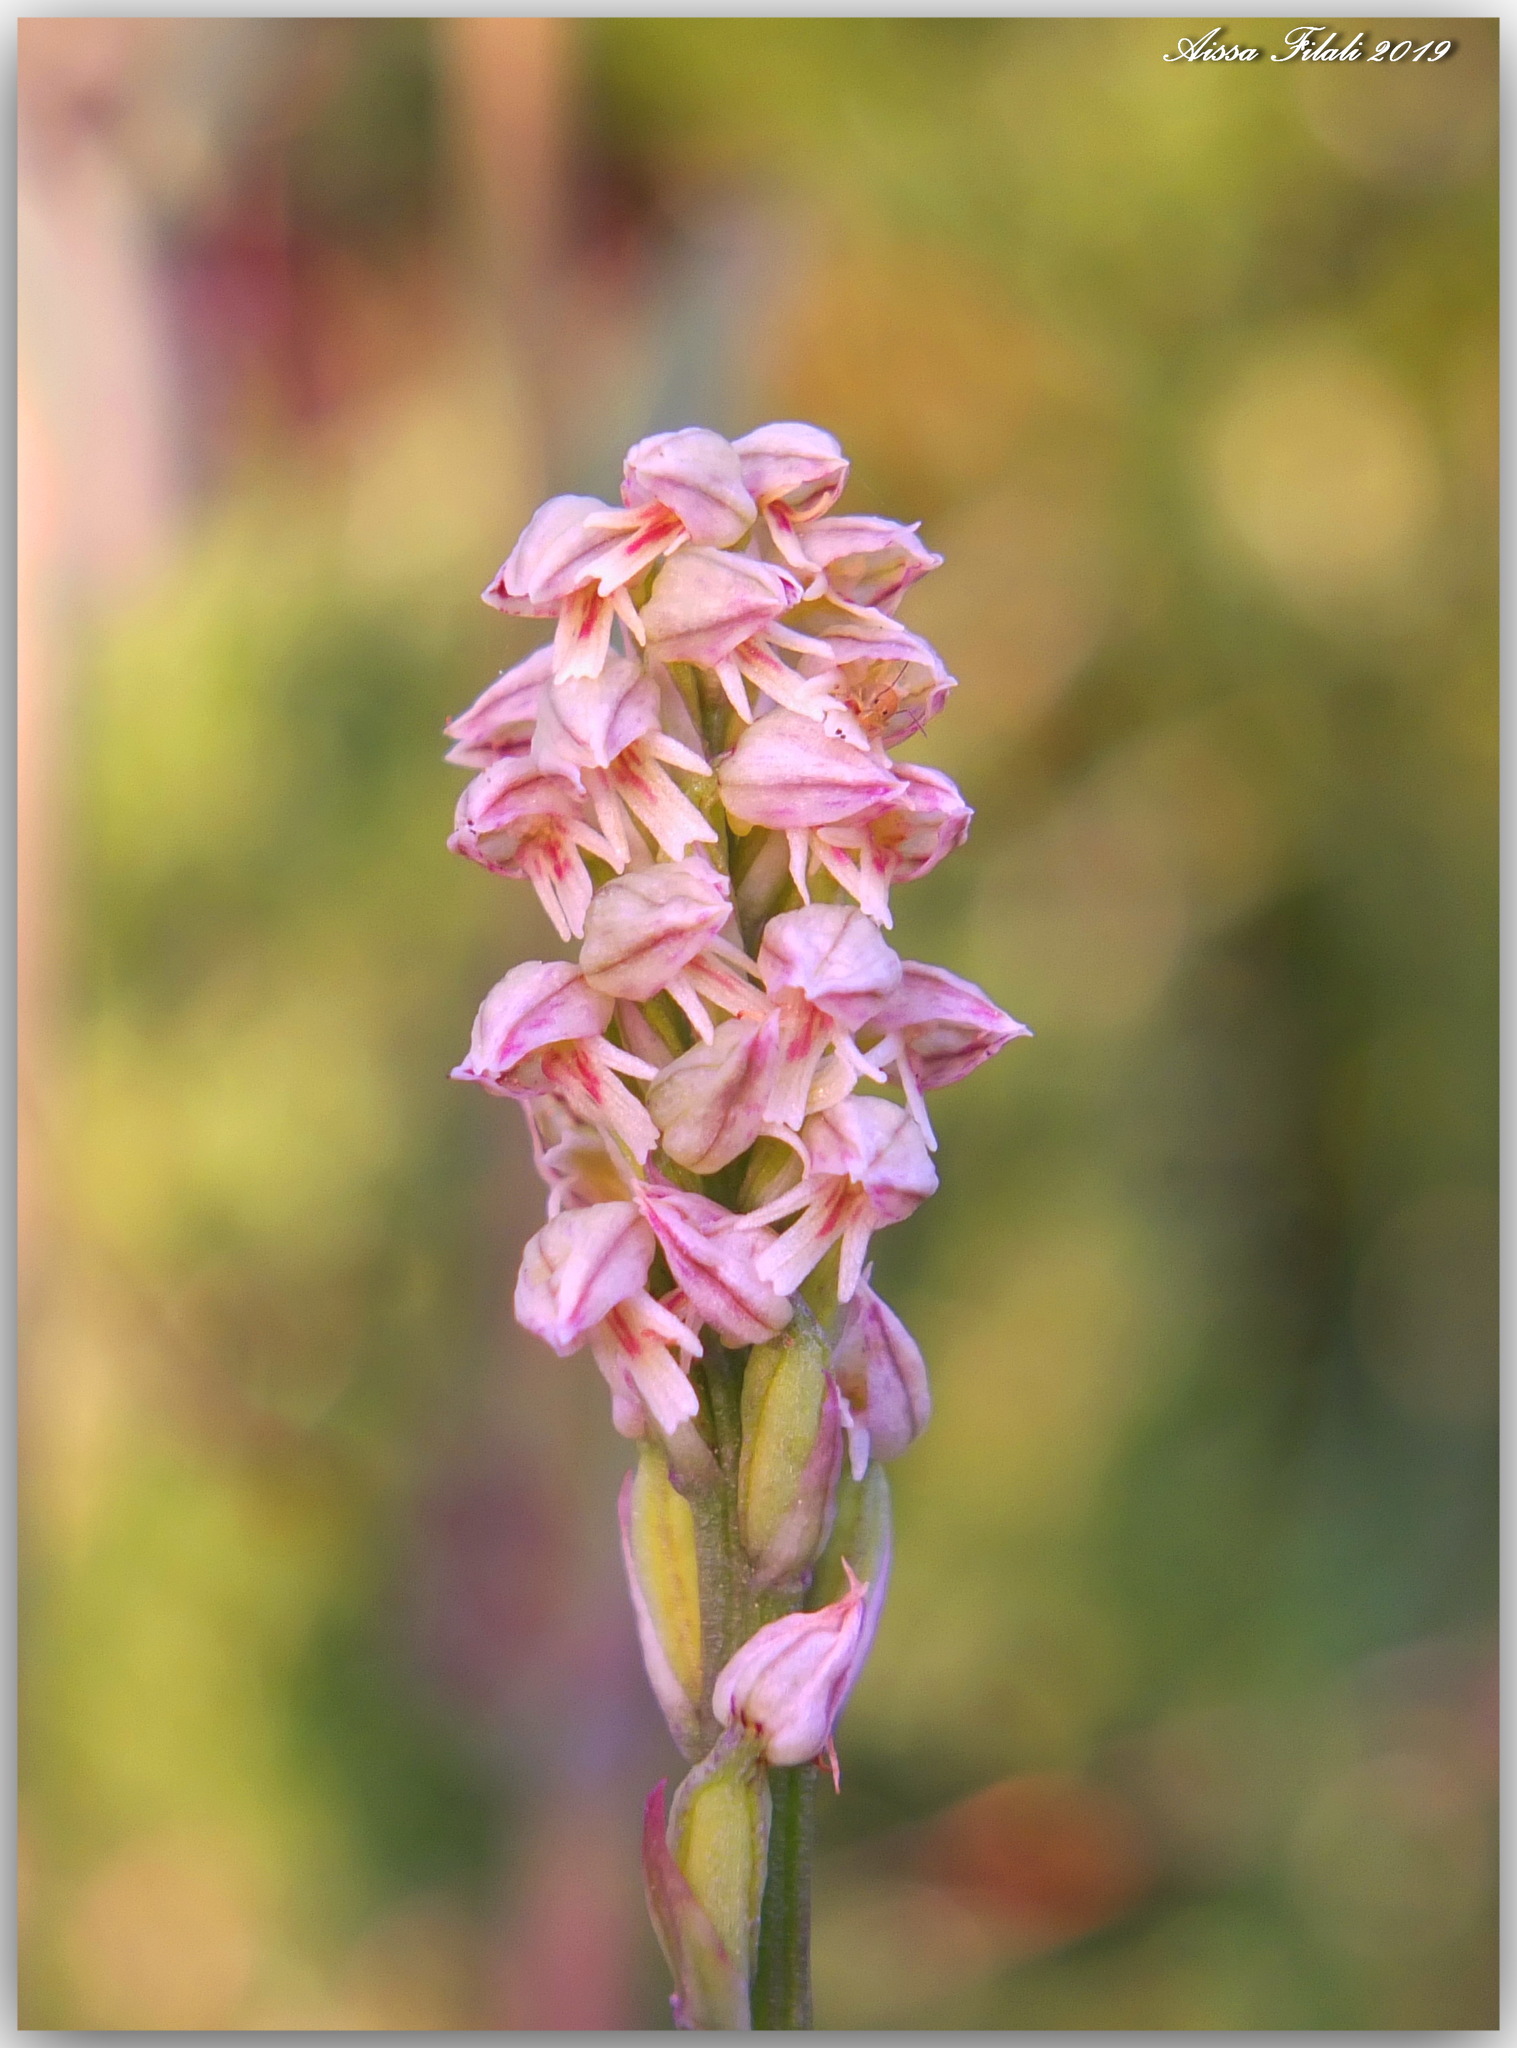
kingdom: Plantae
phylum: Tracheophyta
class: Liliopsida
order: Asparagales
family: Orchidaceae
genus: Neotinea
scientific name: Neotinea maculata
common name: Dense-flowered orchid
